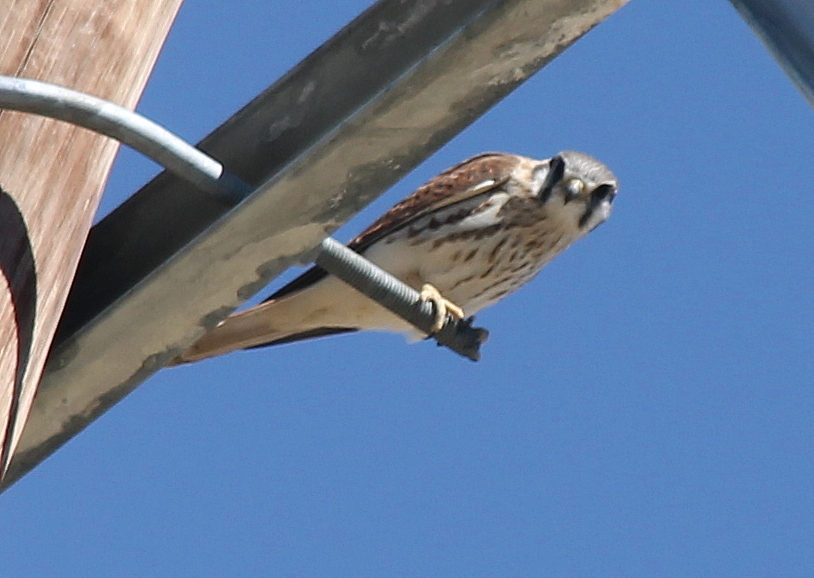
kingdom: Animalia
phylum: Chordata
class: Aves
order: Falconiformes
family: Falconidae
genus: Falco
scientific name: Falco sparverius
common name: American kestrel
